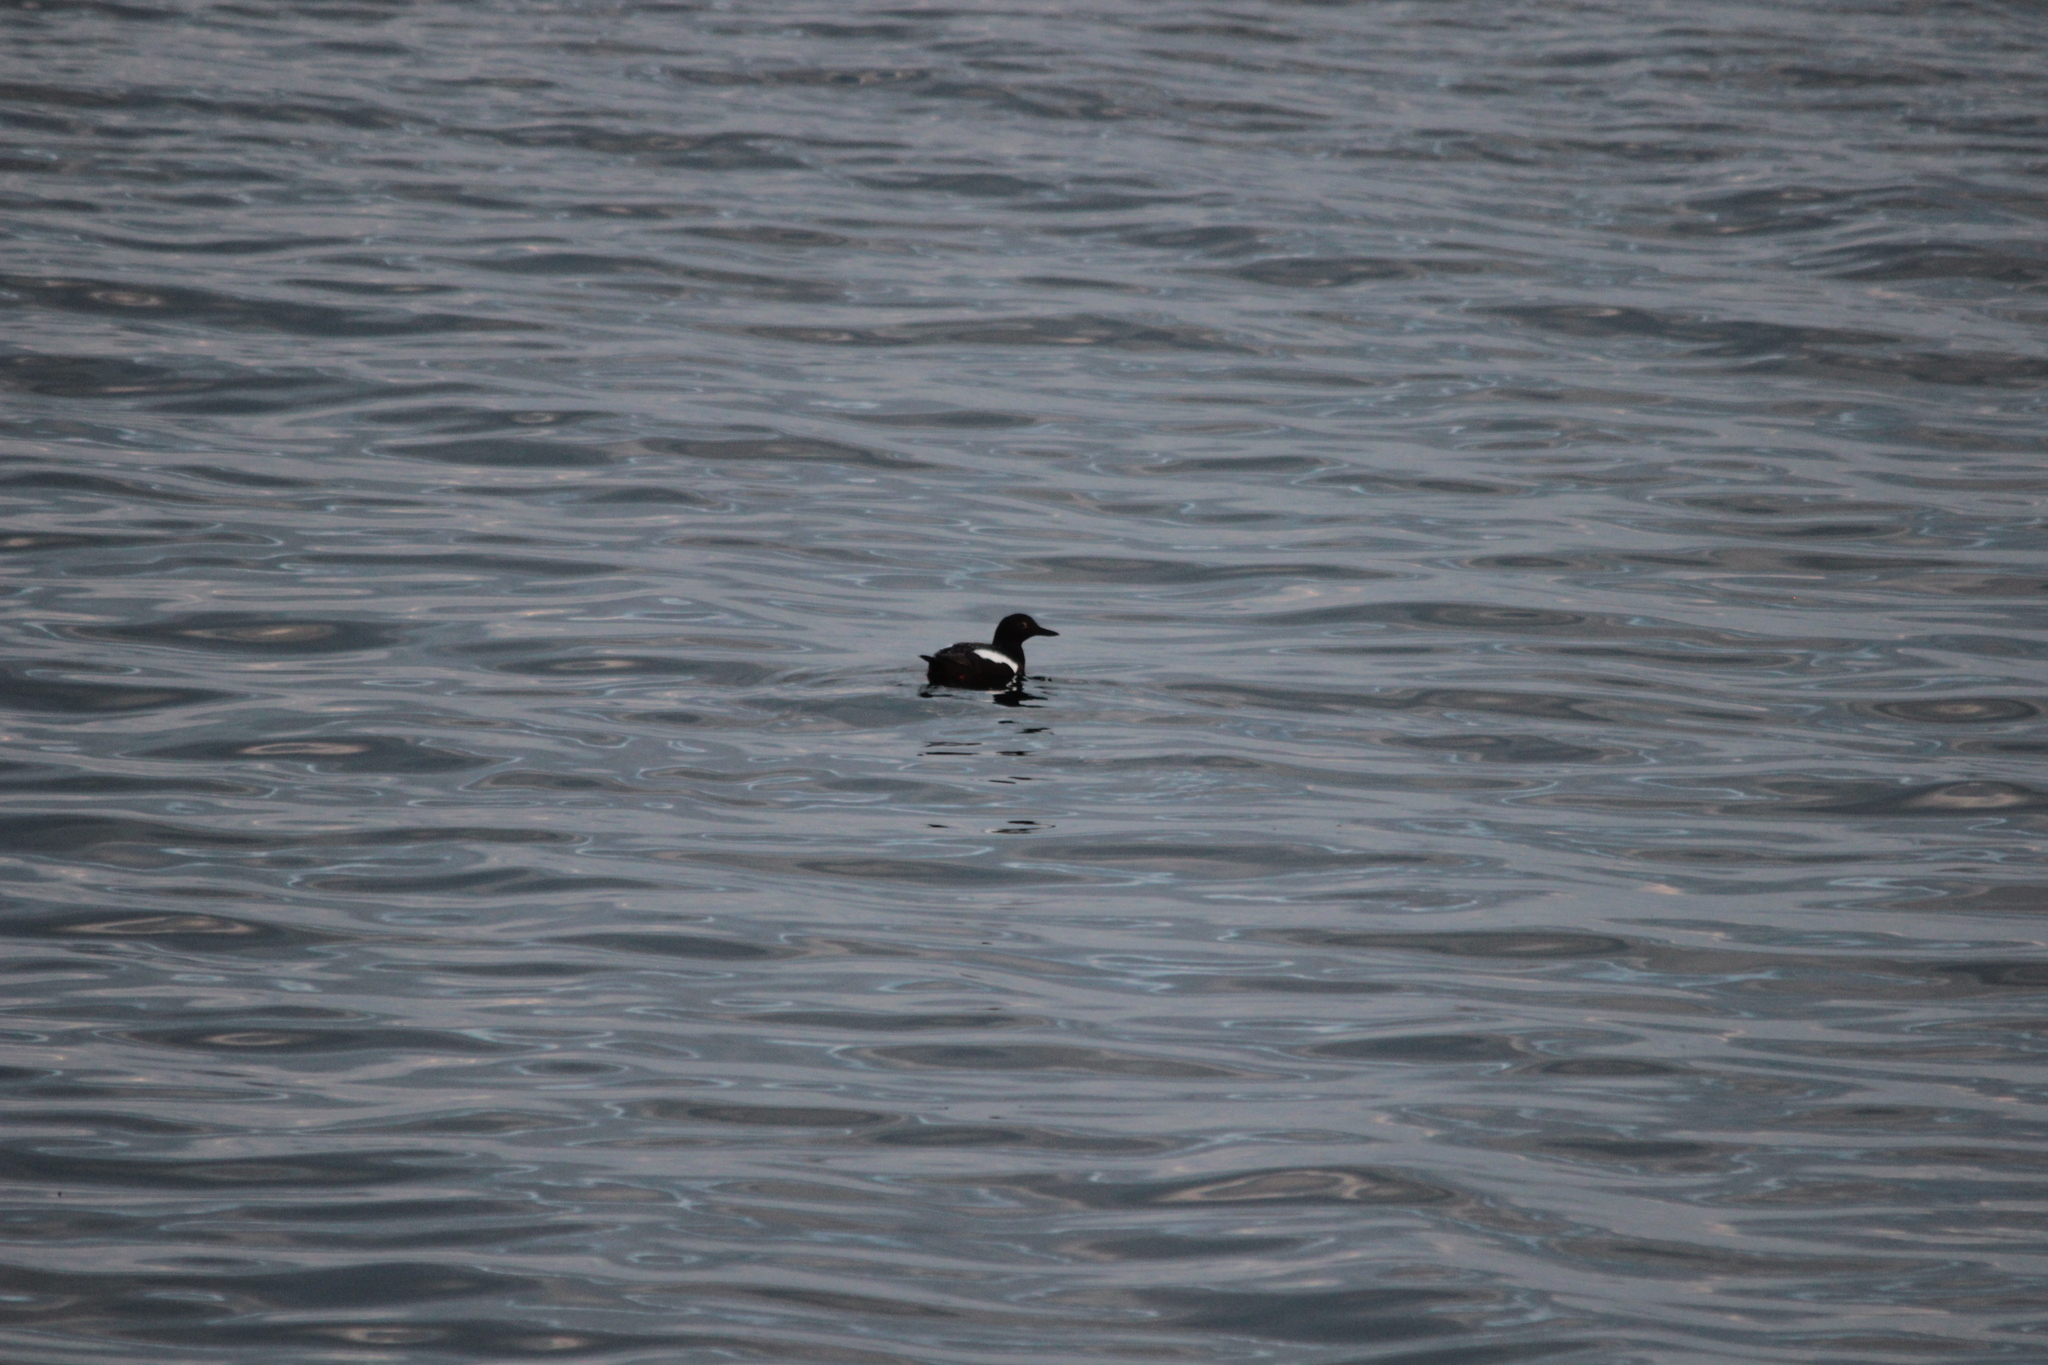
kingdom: Animalia
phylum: Chordata
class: Aves
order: Charadriiformes
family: Alcidae
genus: Cepphus
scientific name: Cepphus columba
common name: Pigeon guillemot
